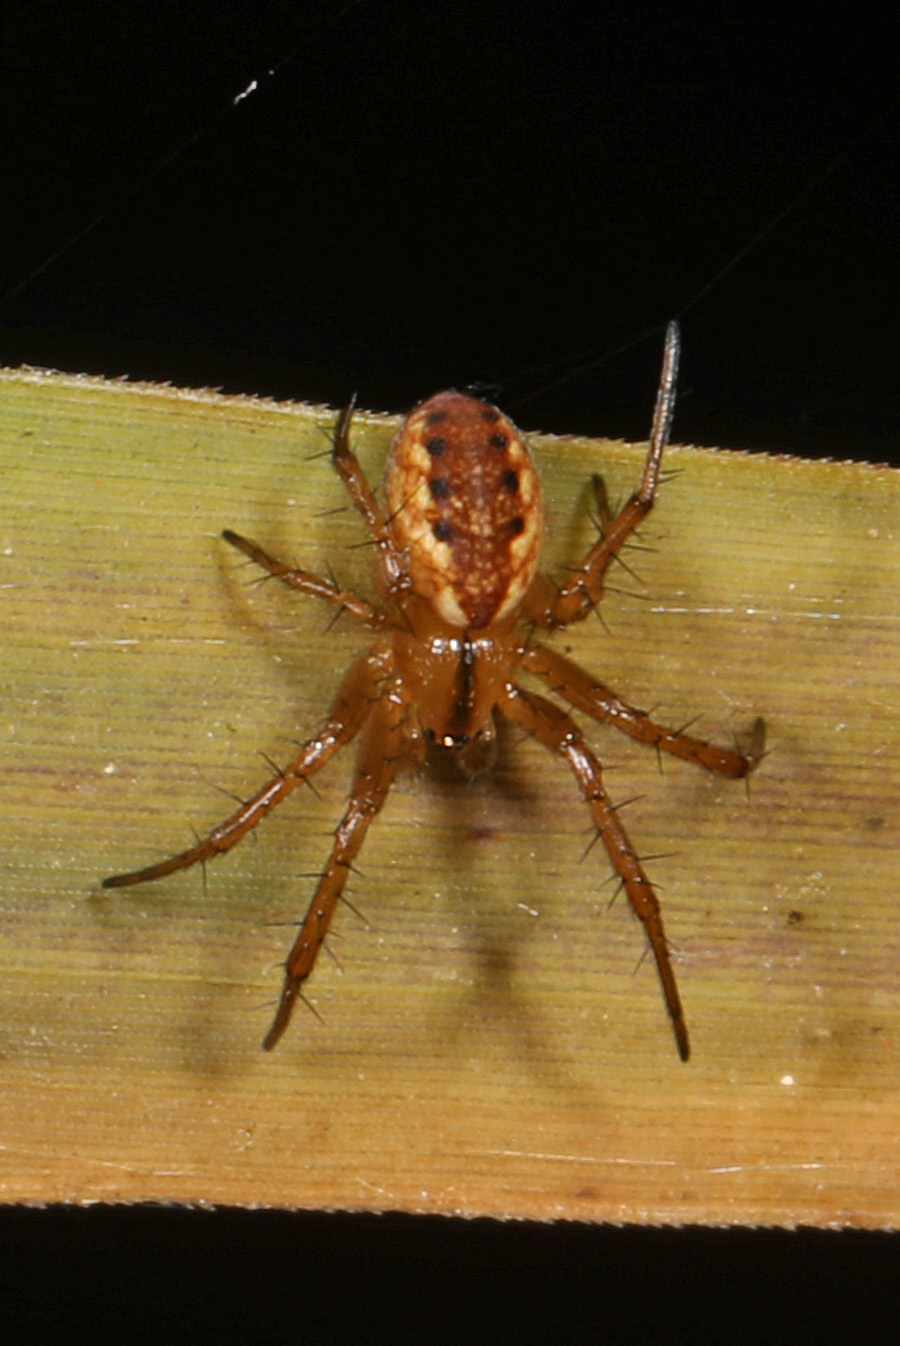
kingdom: Animalia
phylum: Arthropoda
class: Arachnida
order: Araneae
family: Araneidae
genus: Mangora
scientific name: Mangora placida
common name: Tuft-legged orbweaver
